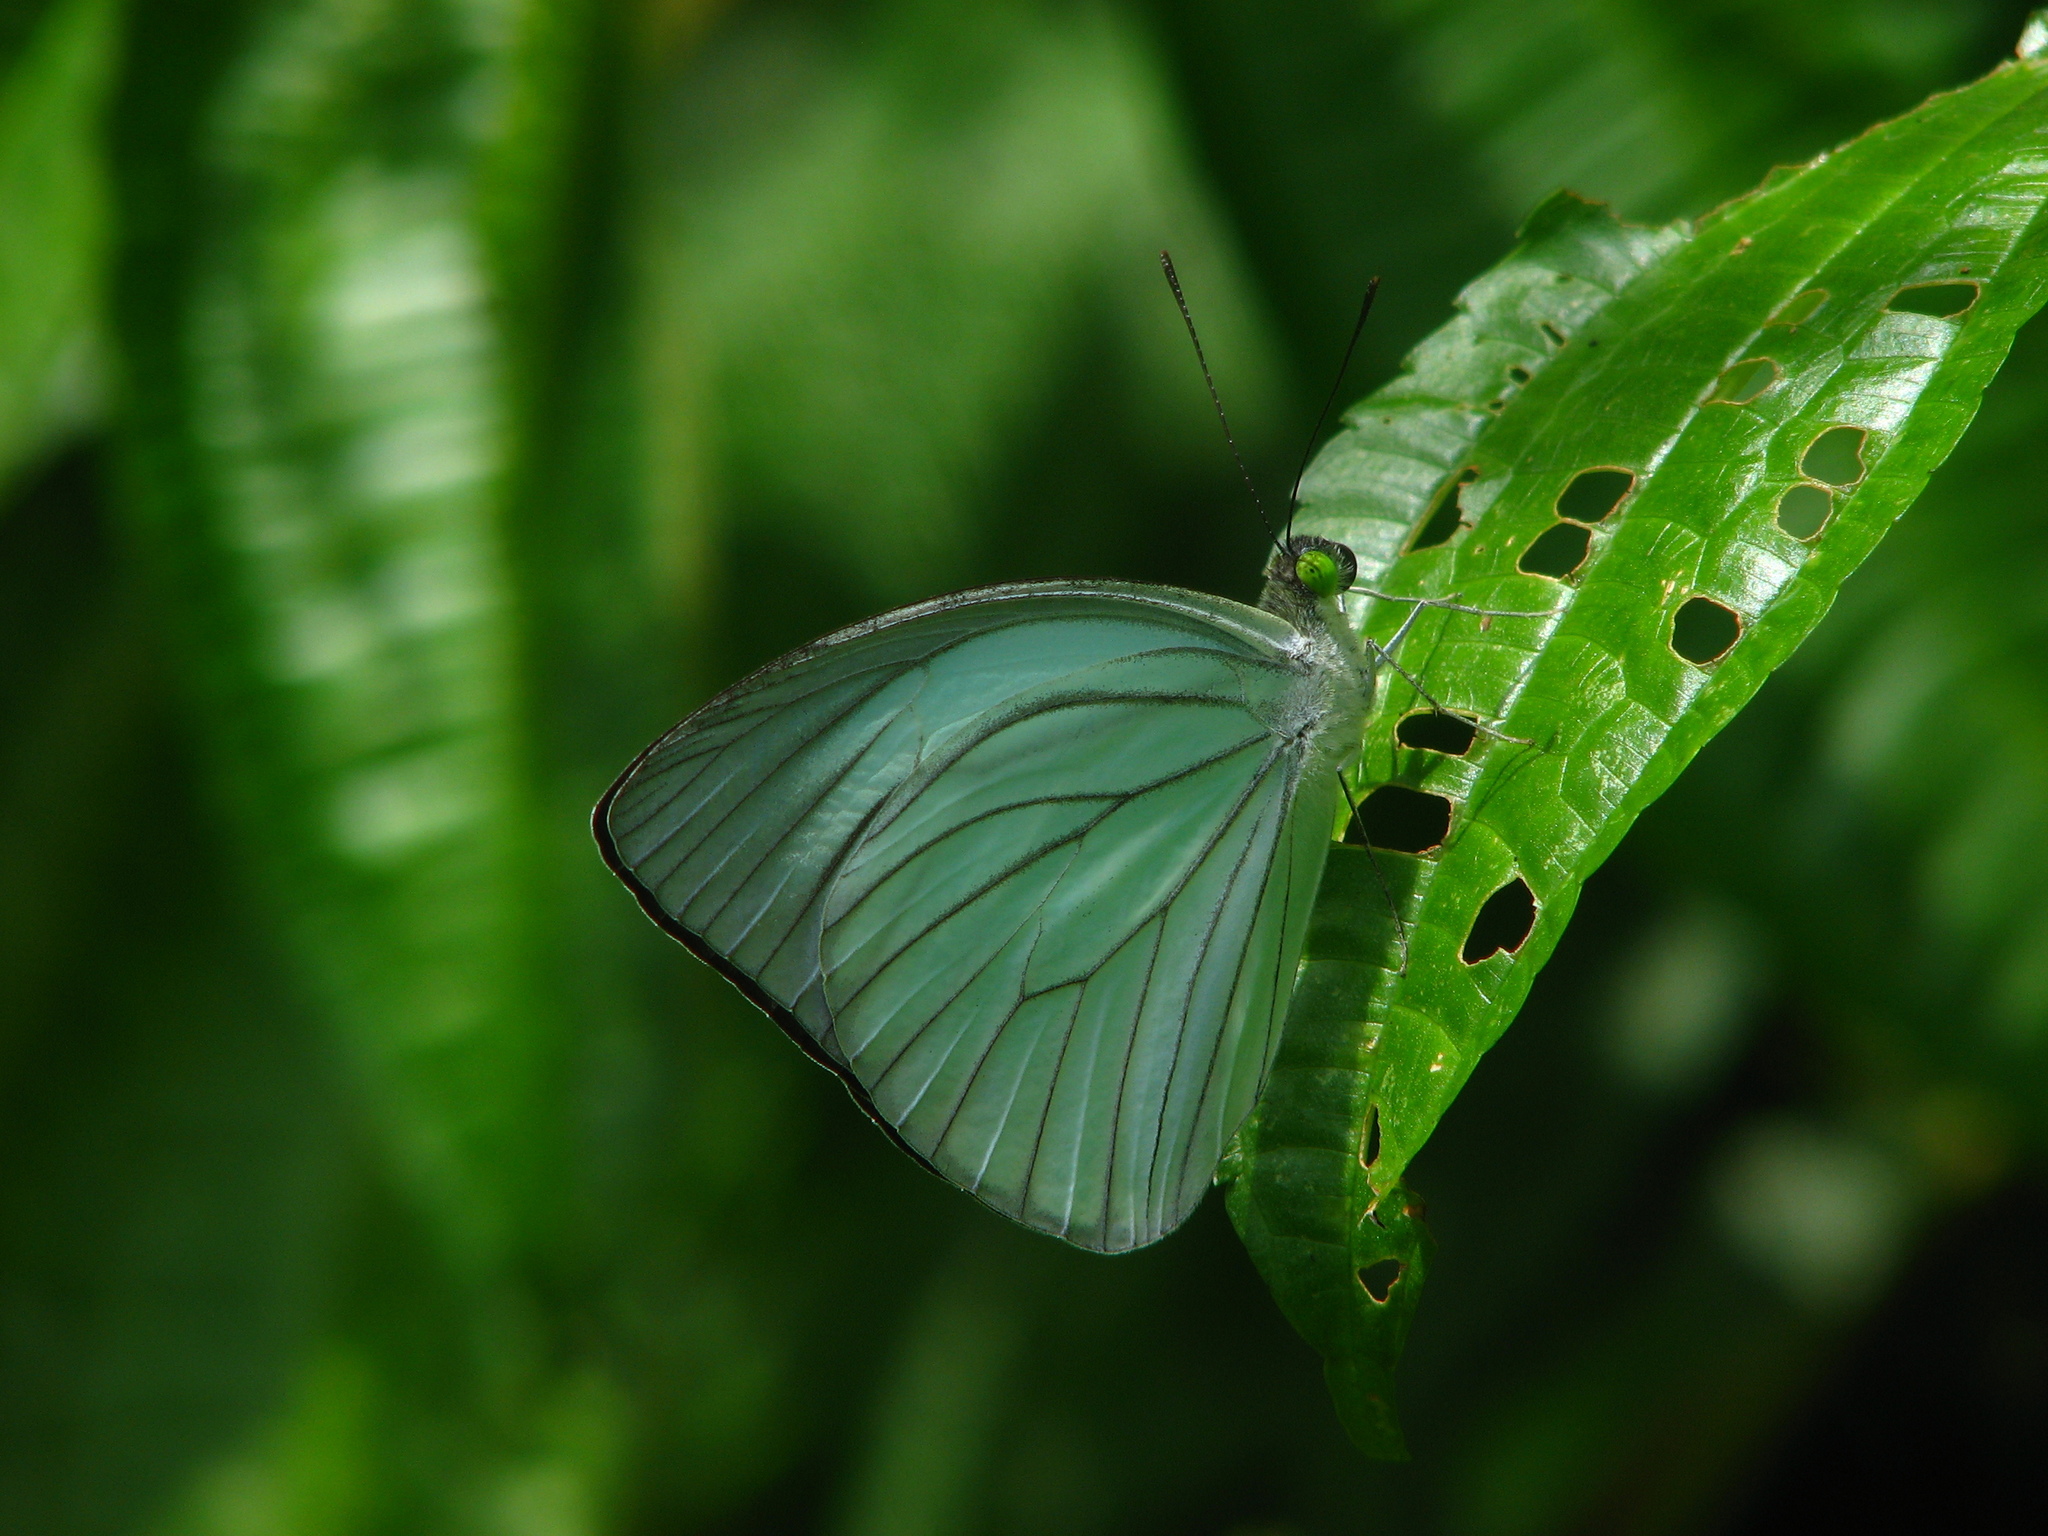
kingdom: Animalia
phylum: Arthropoda
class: Insecta
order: Lepidoptera
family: Pieridae
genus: Pareronia
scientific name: Pareronia avatar
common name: Pale wanderer
